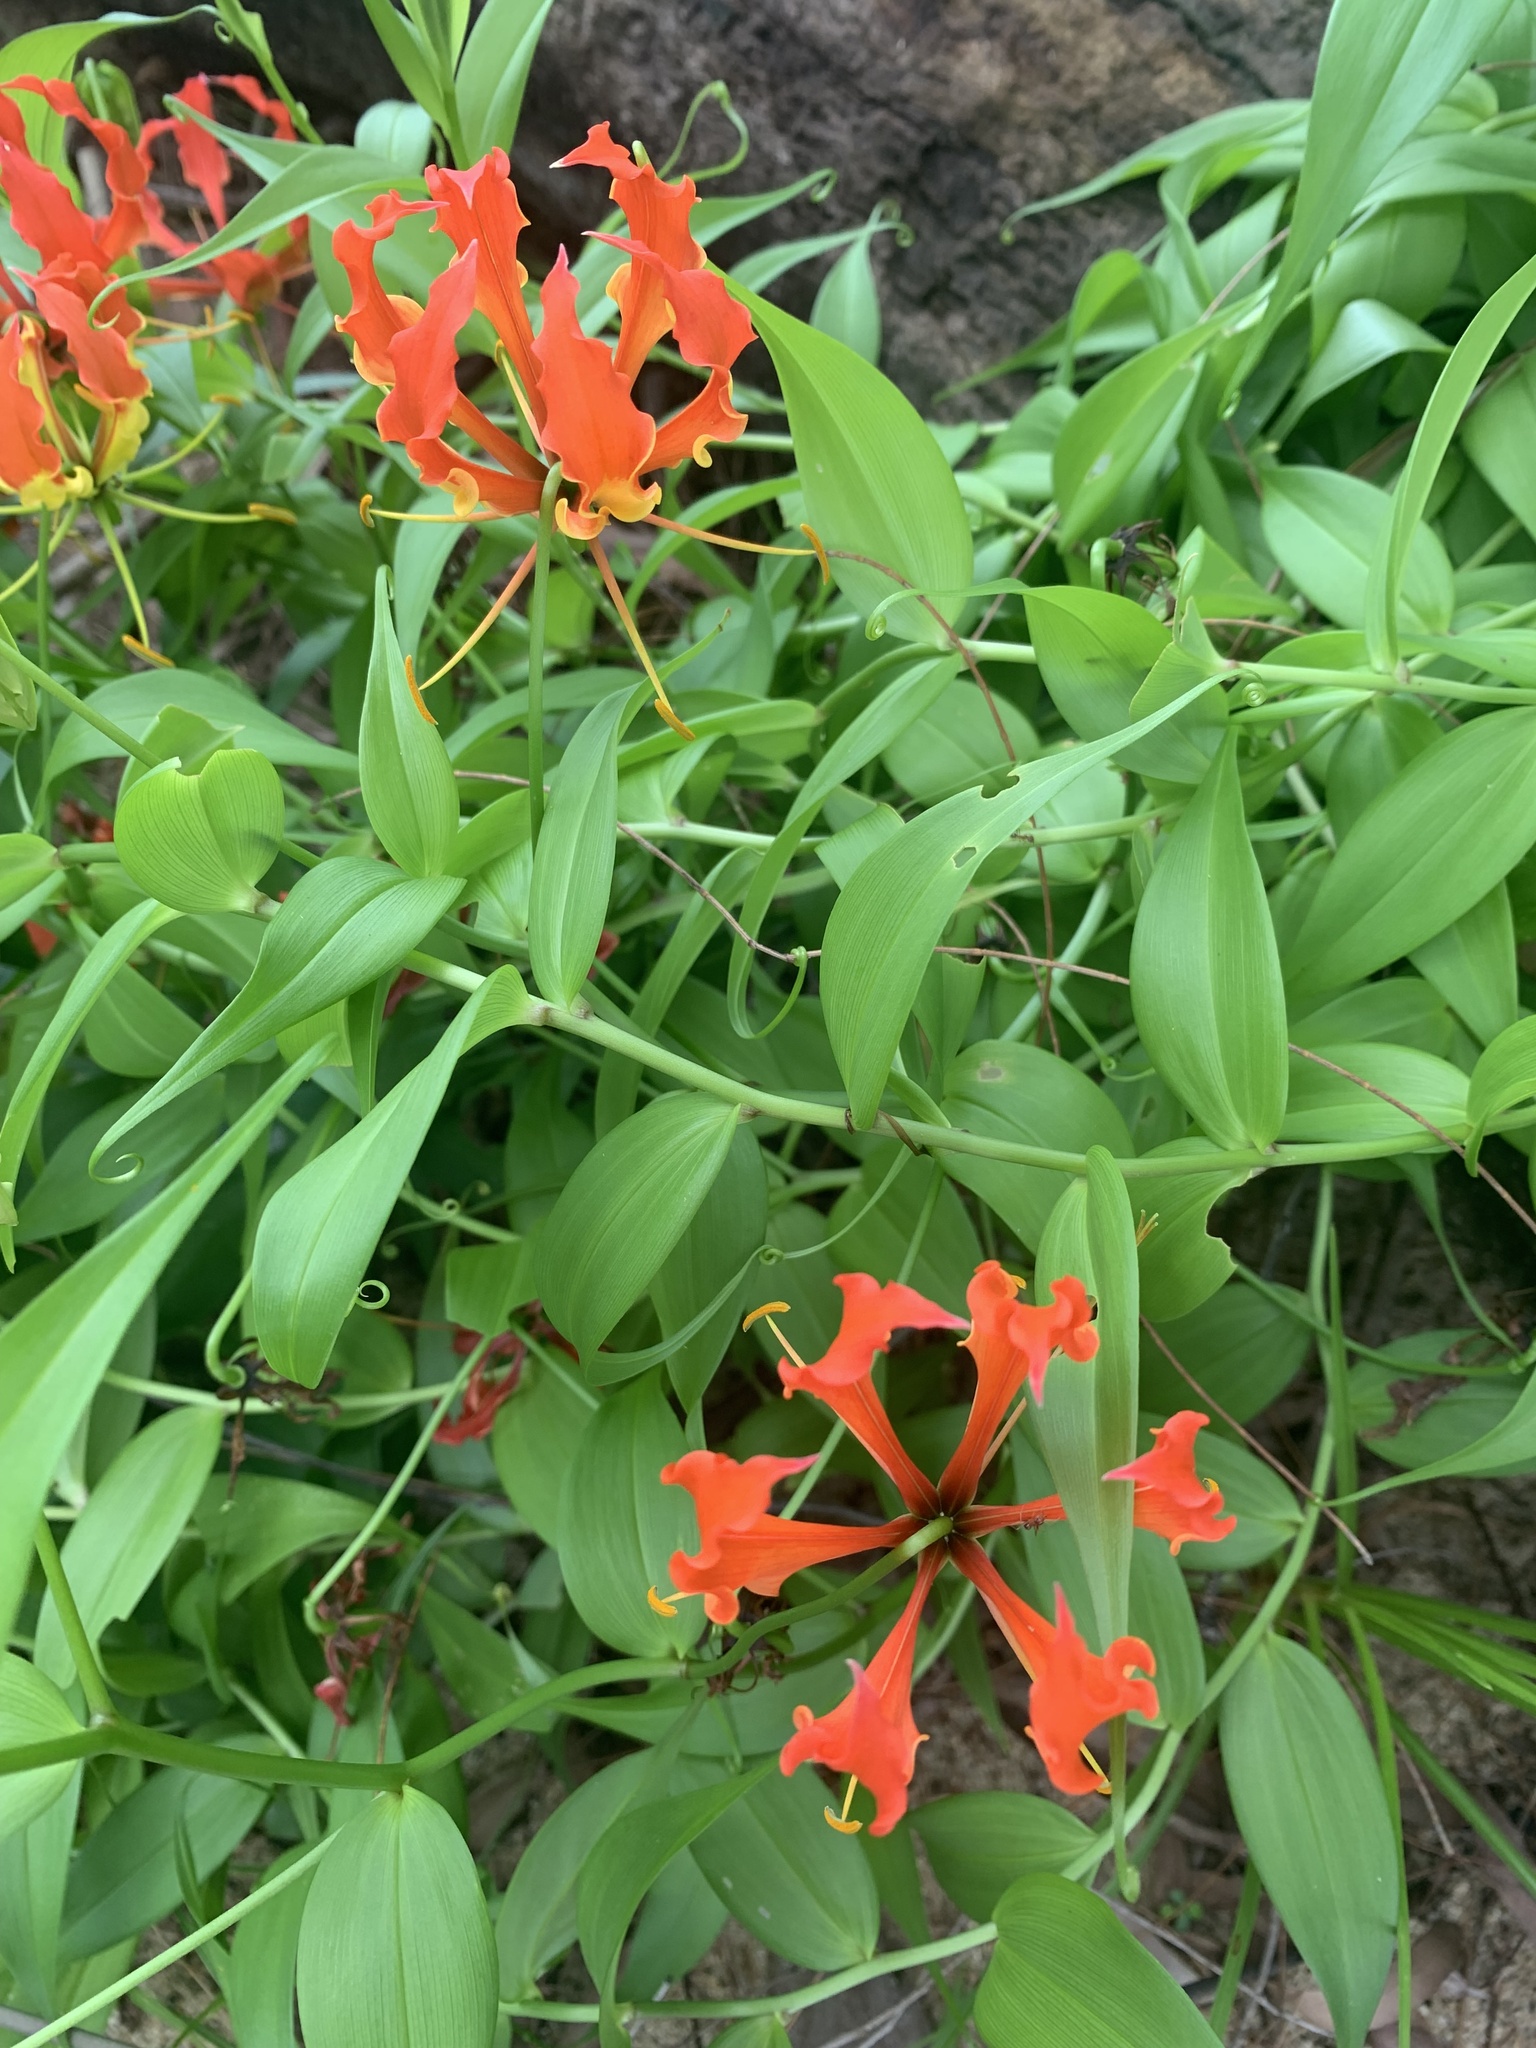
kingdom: Plantae
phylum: Tracheophyta
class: Liliopsida
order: Liliales
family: Colchicaceae
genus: Gloriosa
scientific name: Gloriosa superba
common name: Flame lily
